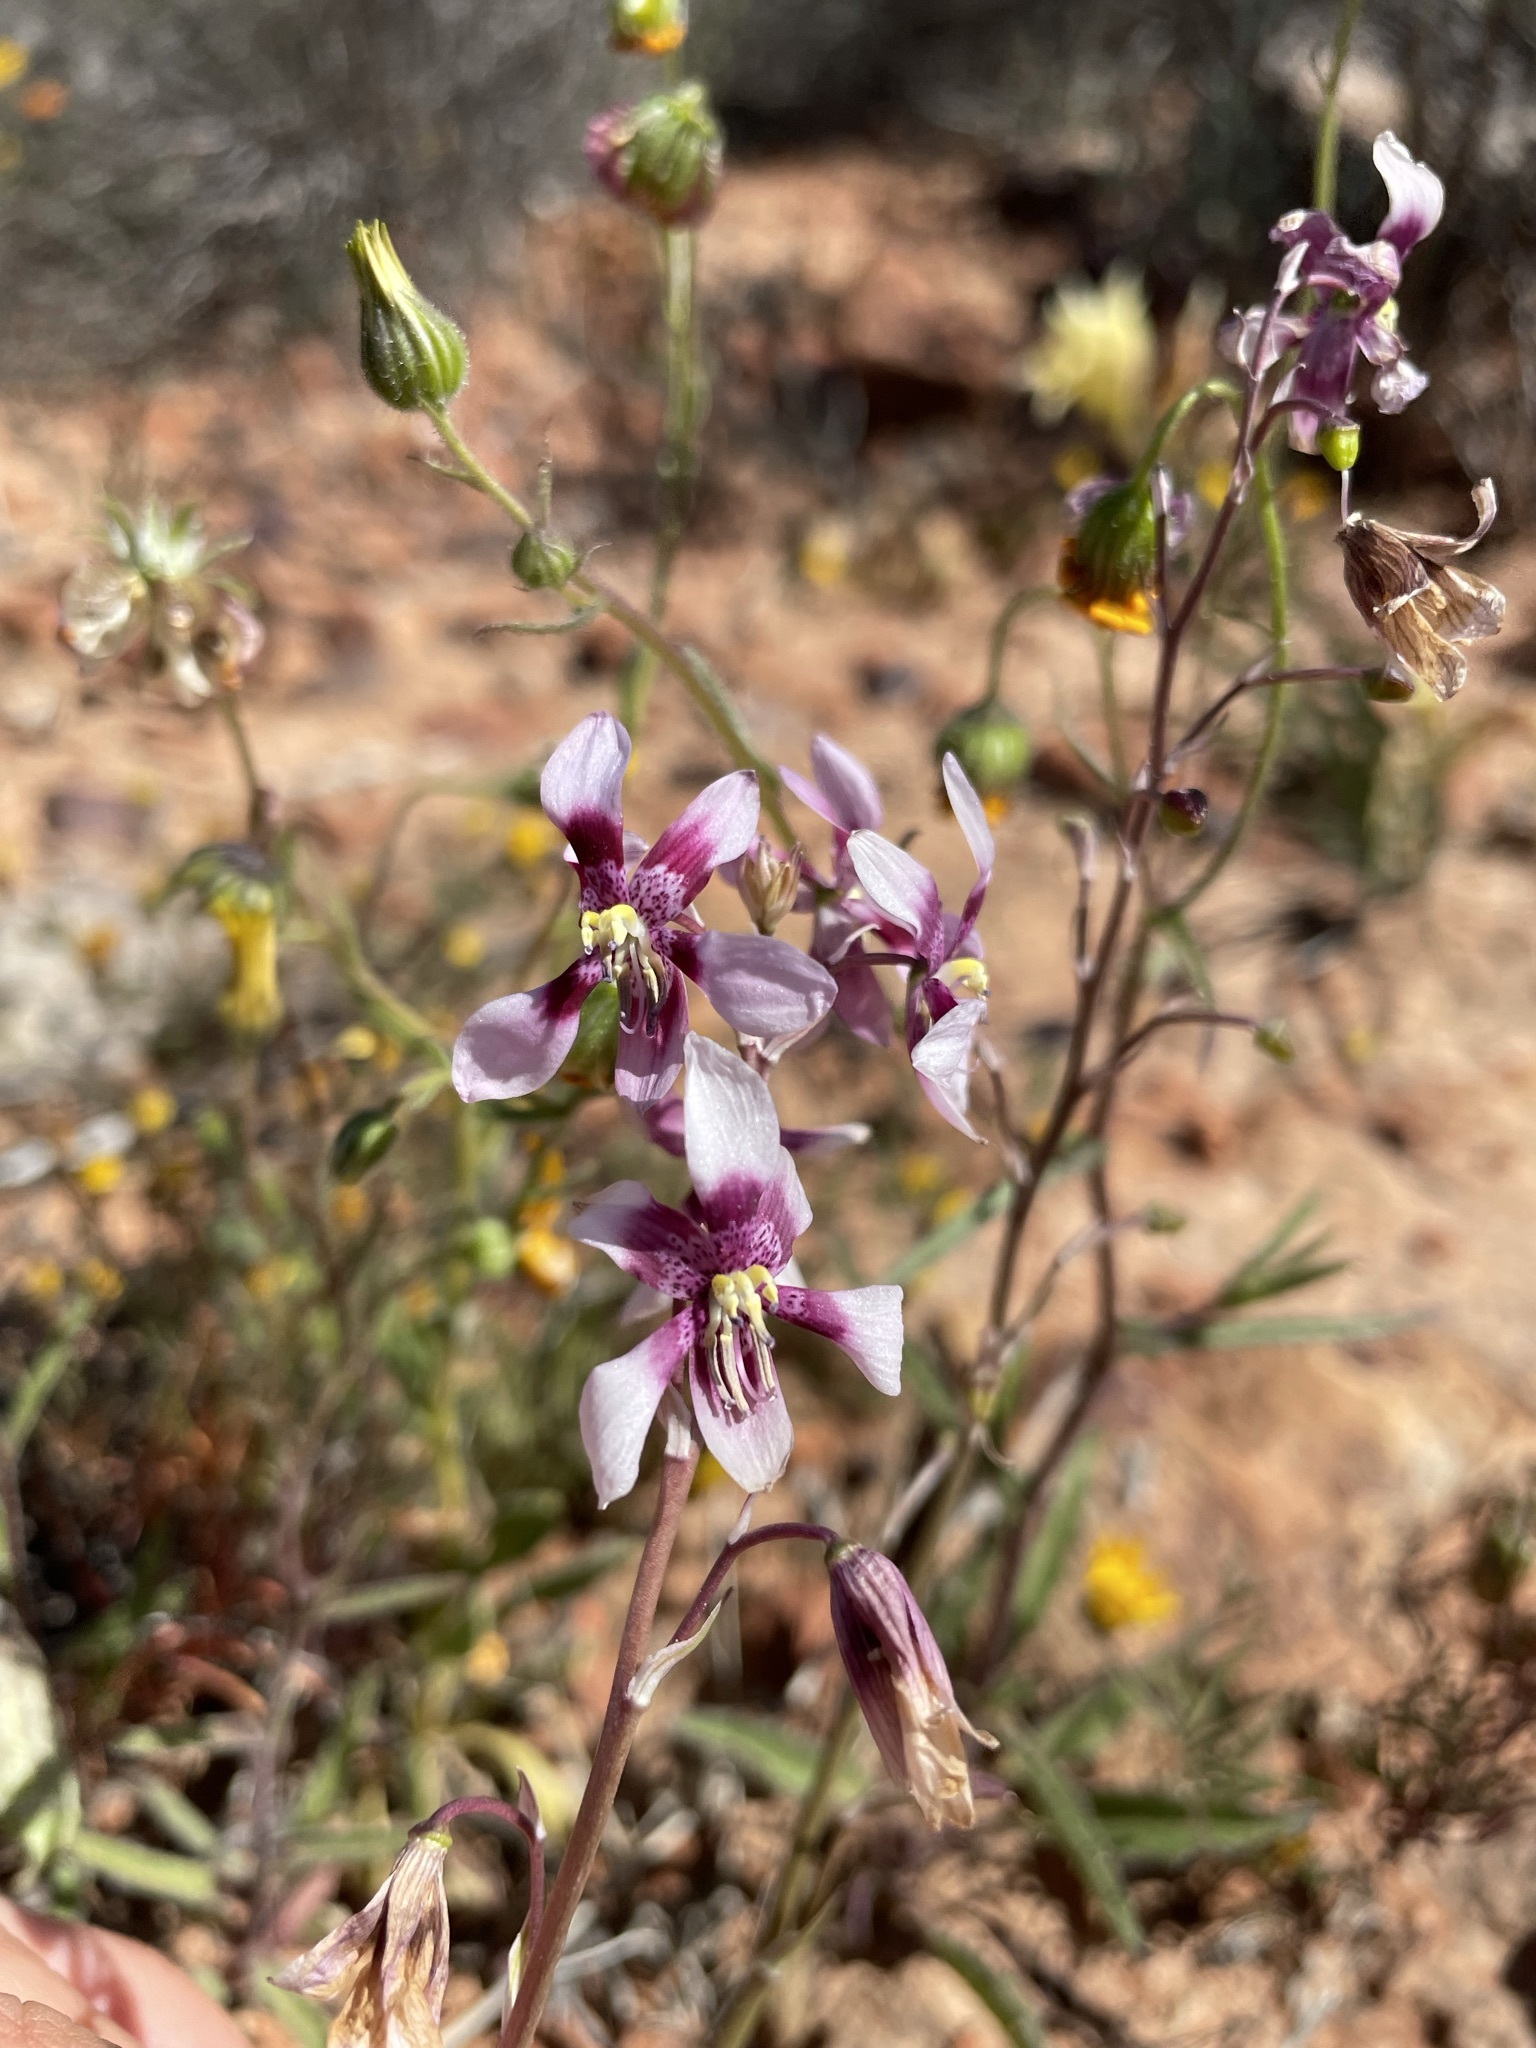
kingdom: Plantae
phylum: Tracheophyta
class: Liliopsida
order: Asparagales
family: Tecophilaeaceae
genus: Cyanella
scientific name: Cyanella orchidiformis
